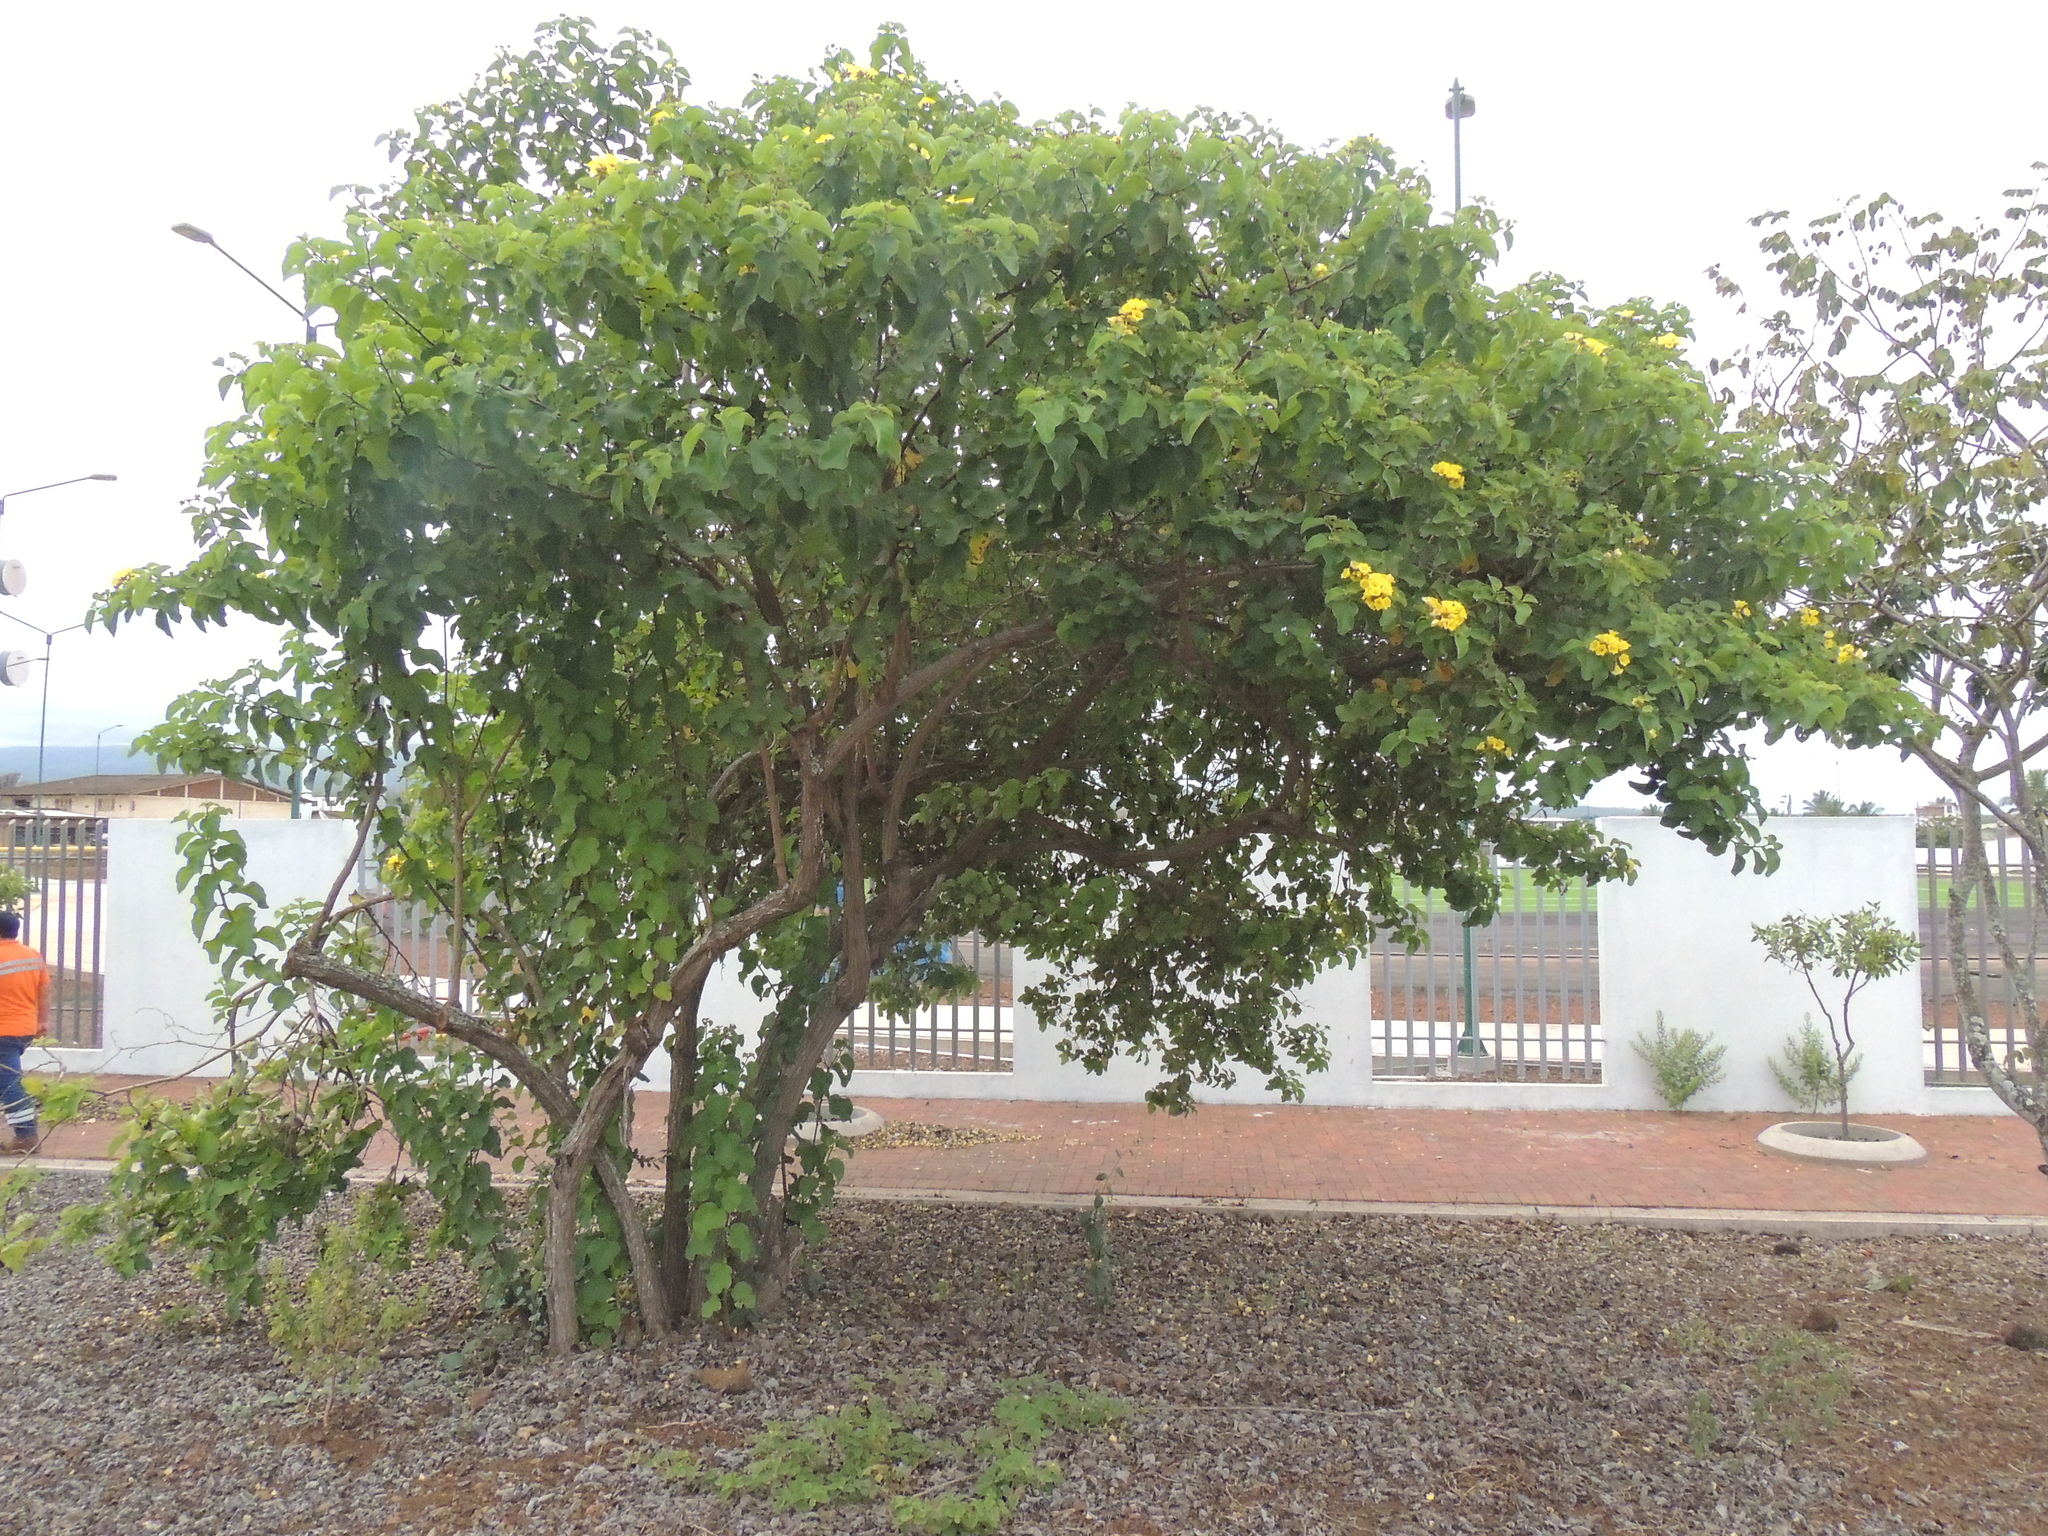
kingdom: Plantae
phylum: Tracheophyta
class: Magnoliopsida
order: Boraginales
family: Cordiaceae
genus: Cordia
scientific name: Cordia lutea
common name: Yellow geiger
